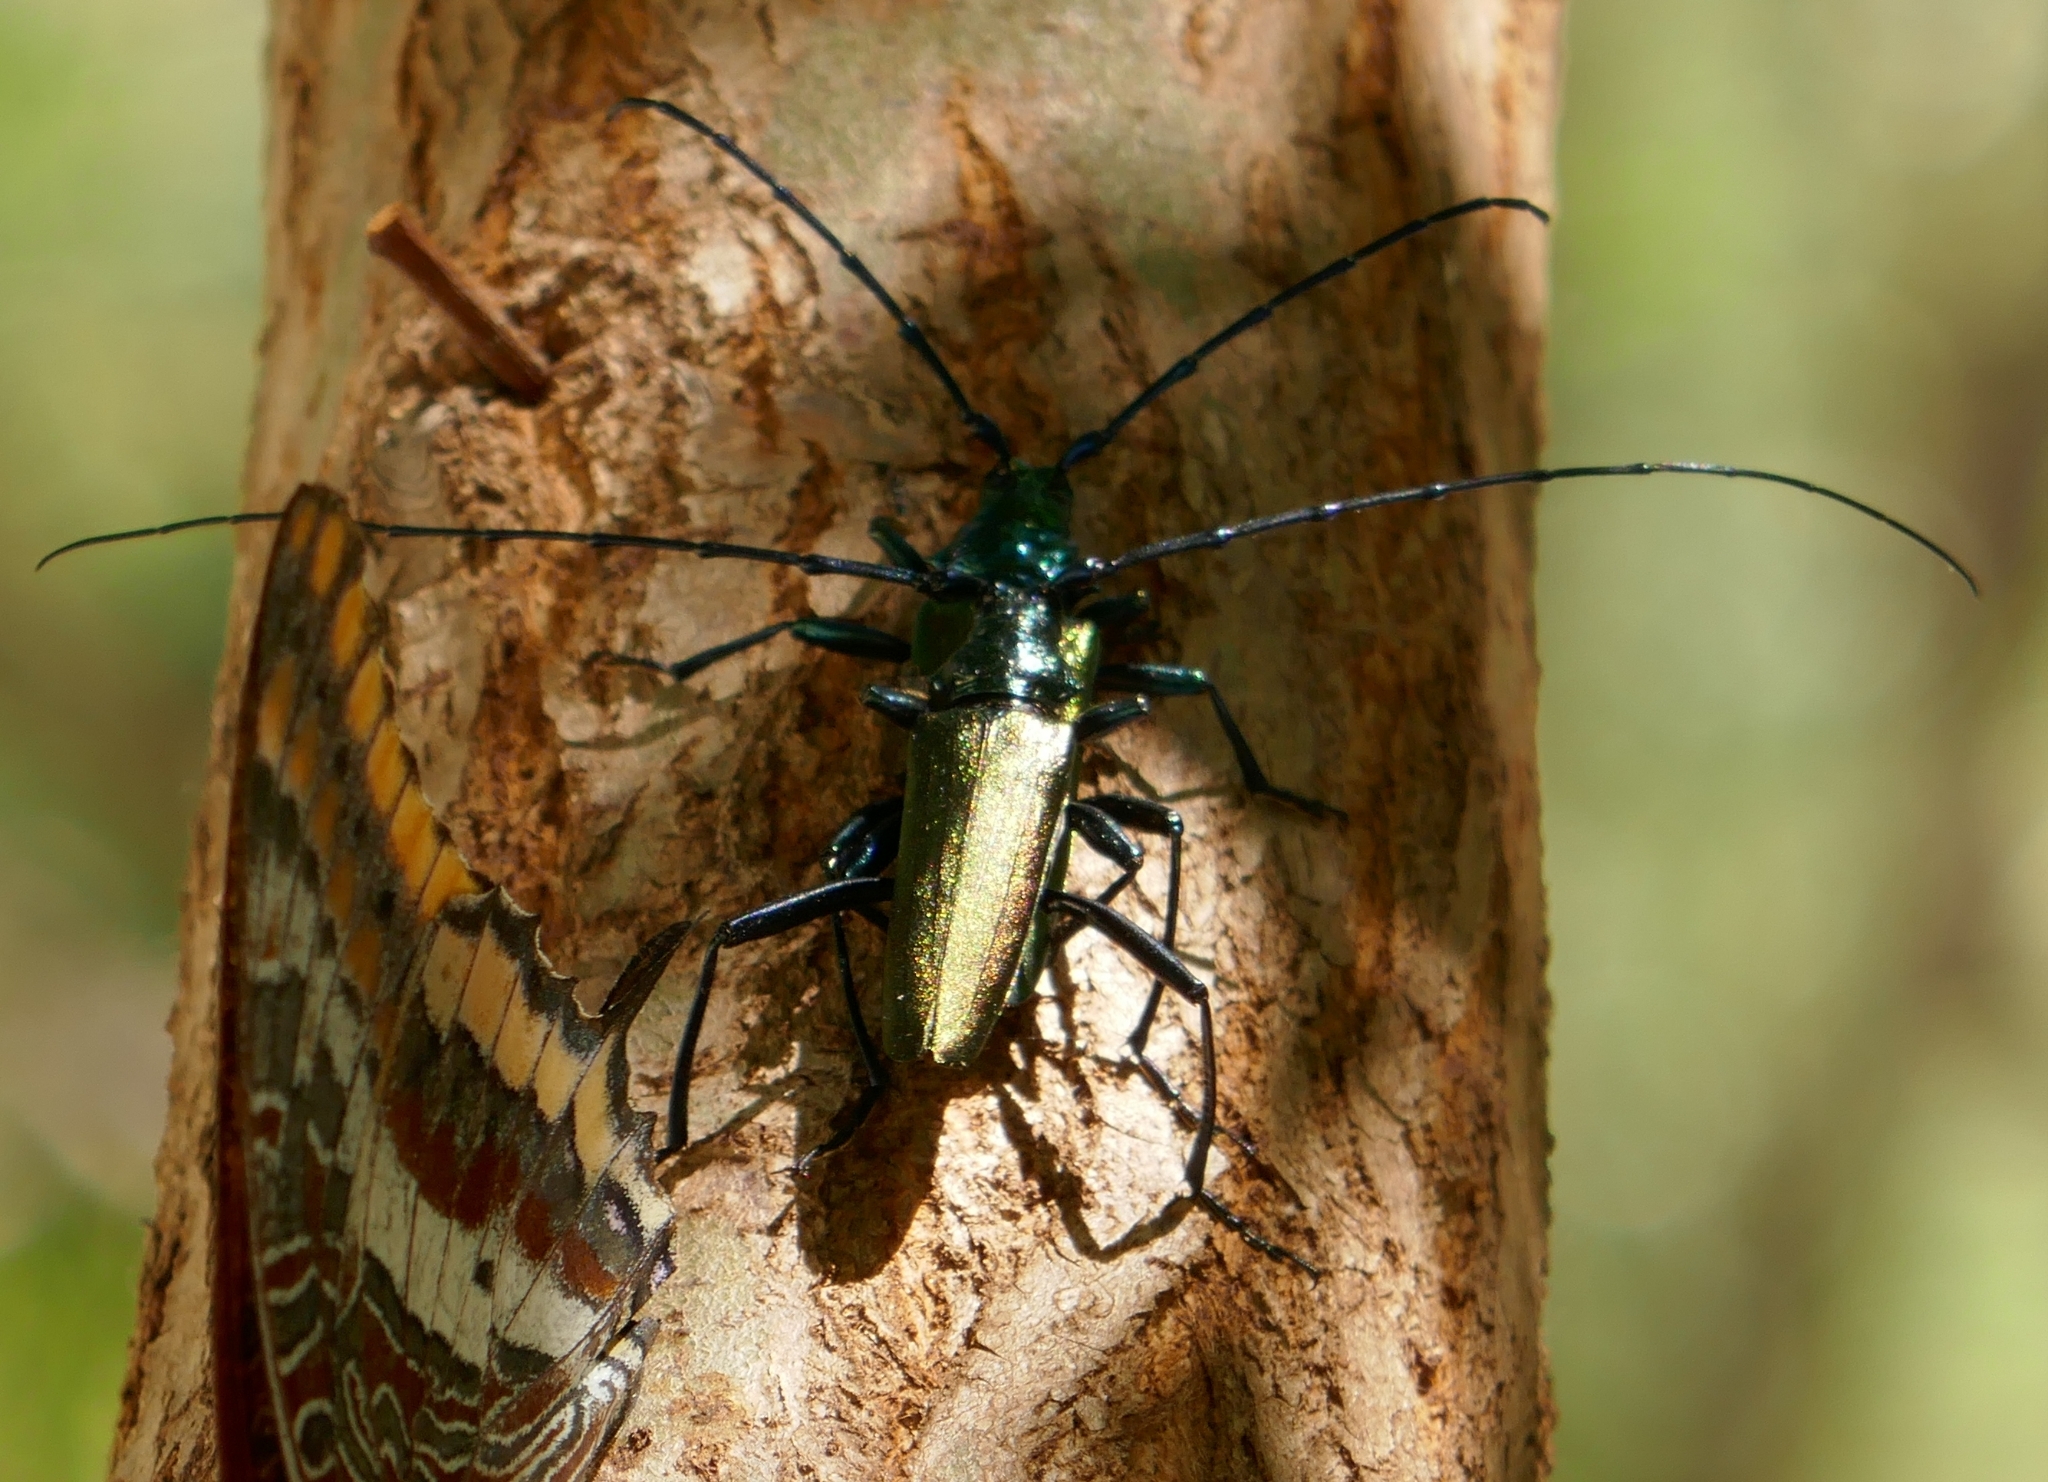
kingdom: Animalia
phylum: Arthropoda
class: Insecta
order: Coleoptera
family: Cerambycidae
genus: Aromia
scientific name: Aromia moschata
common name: Musk beetle
